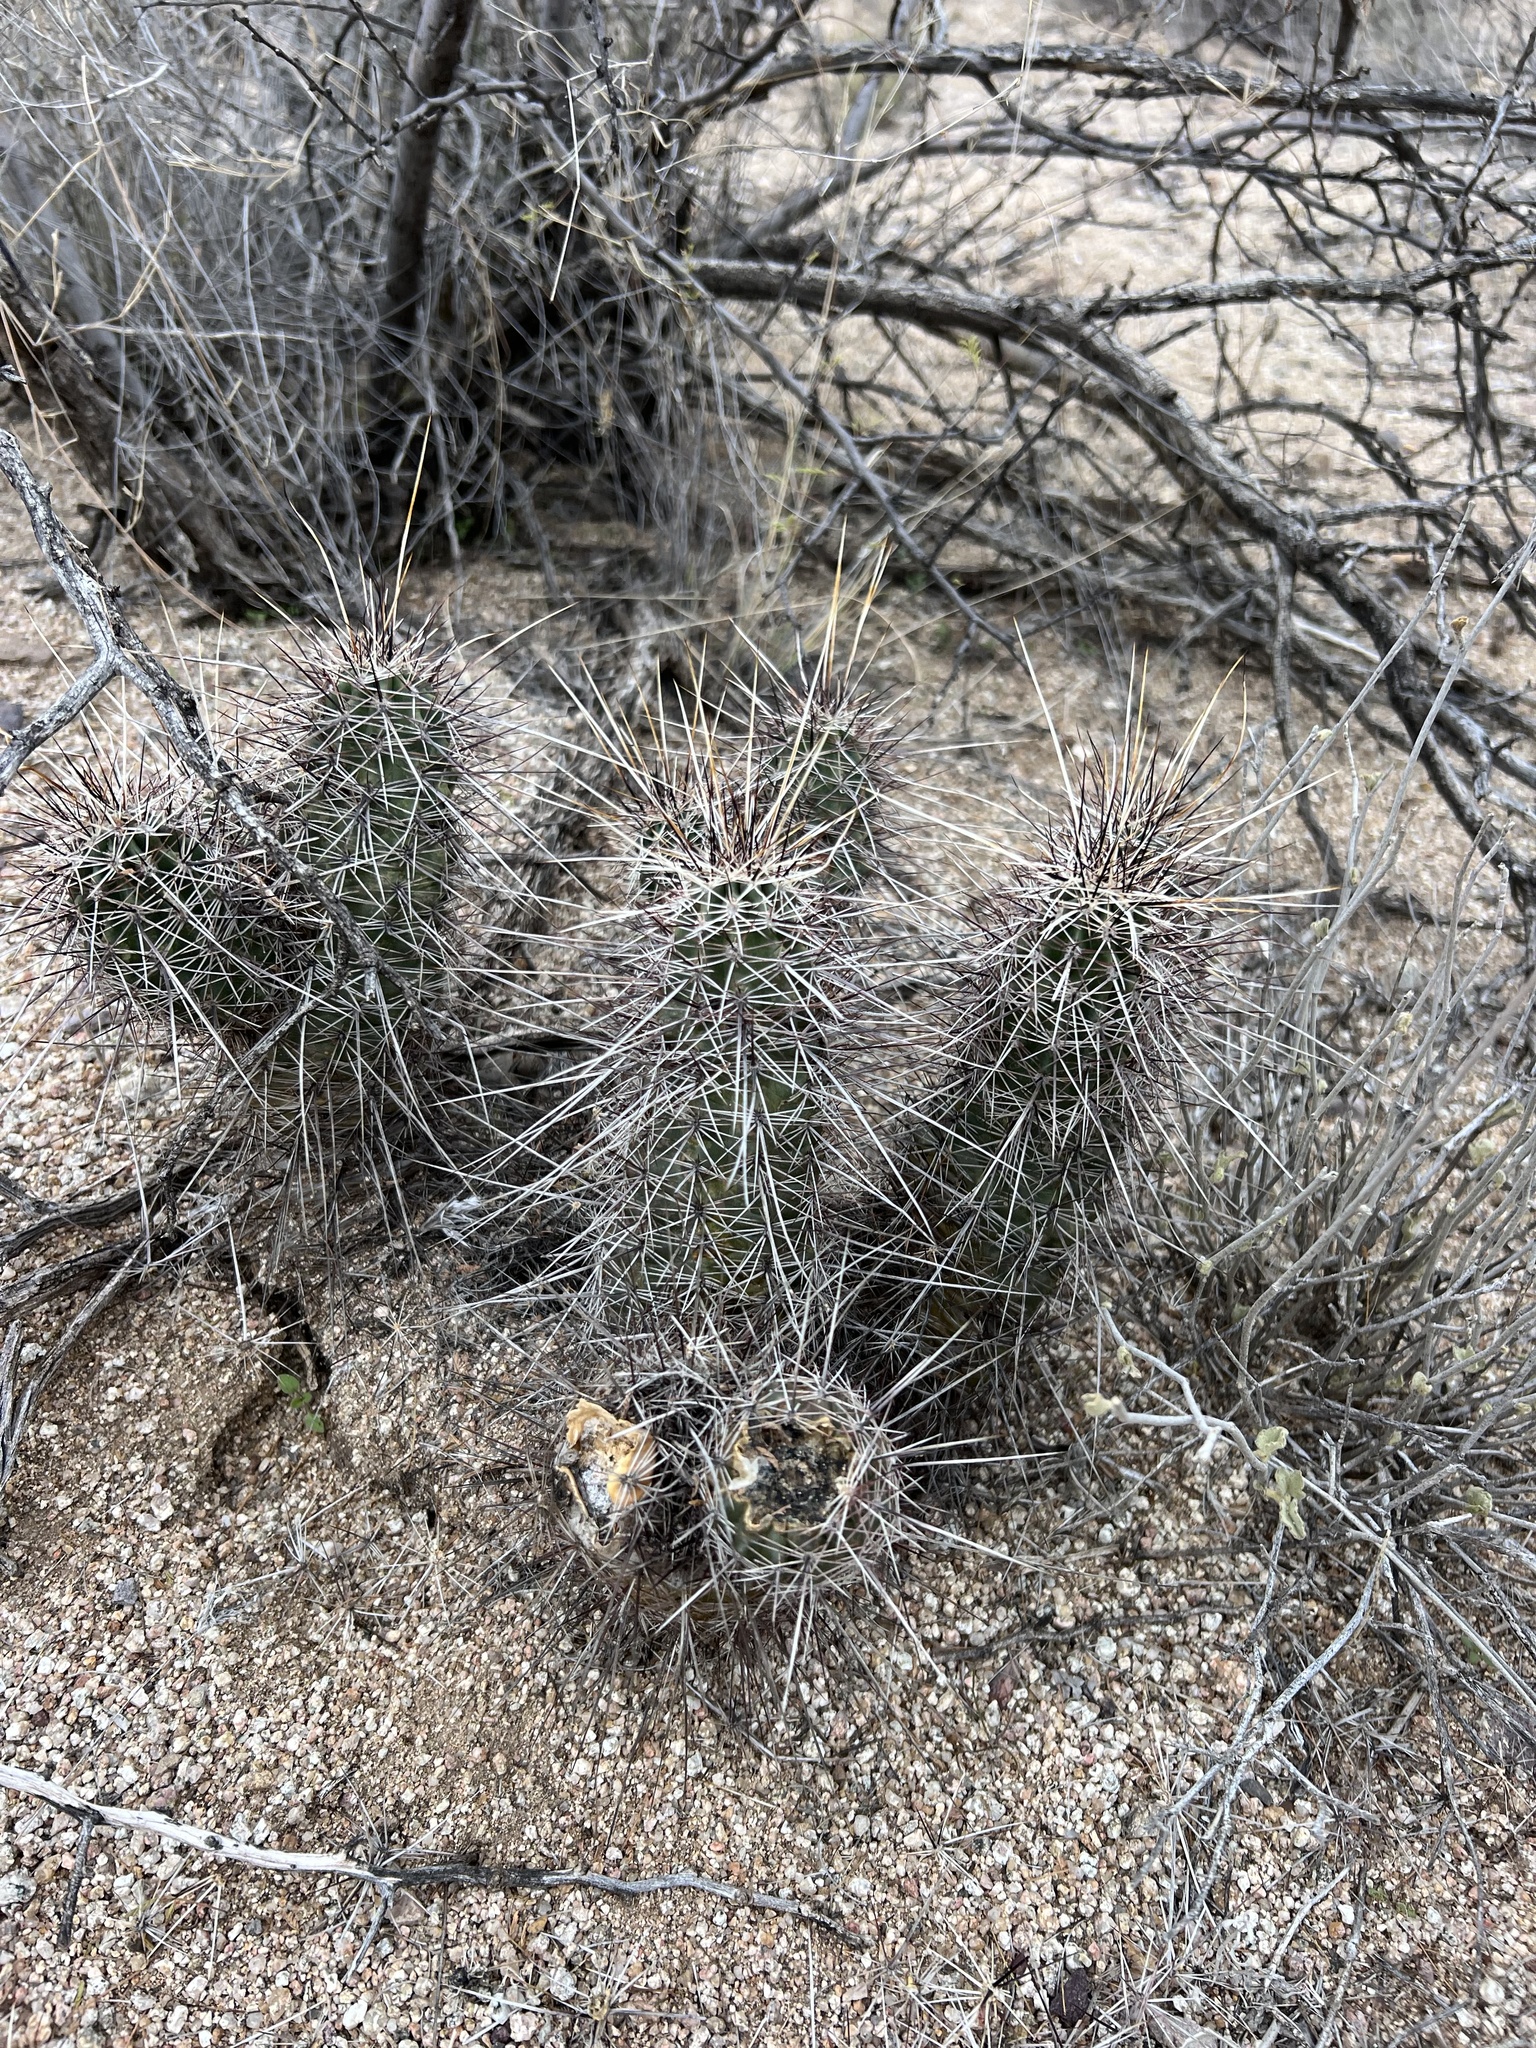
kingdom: Plantae
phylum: Tracheophyta
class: Magnoliopsida
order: Caryophyllales
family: Cactaceae
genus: Echinocereus
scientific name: Echinocereus fasciculatus
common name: Bundle hedgehog
